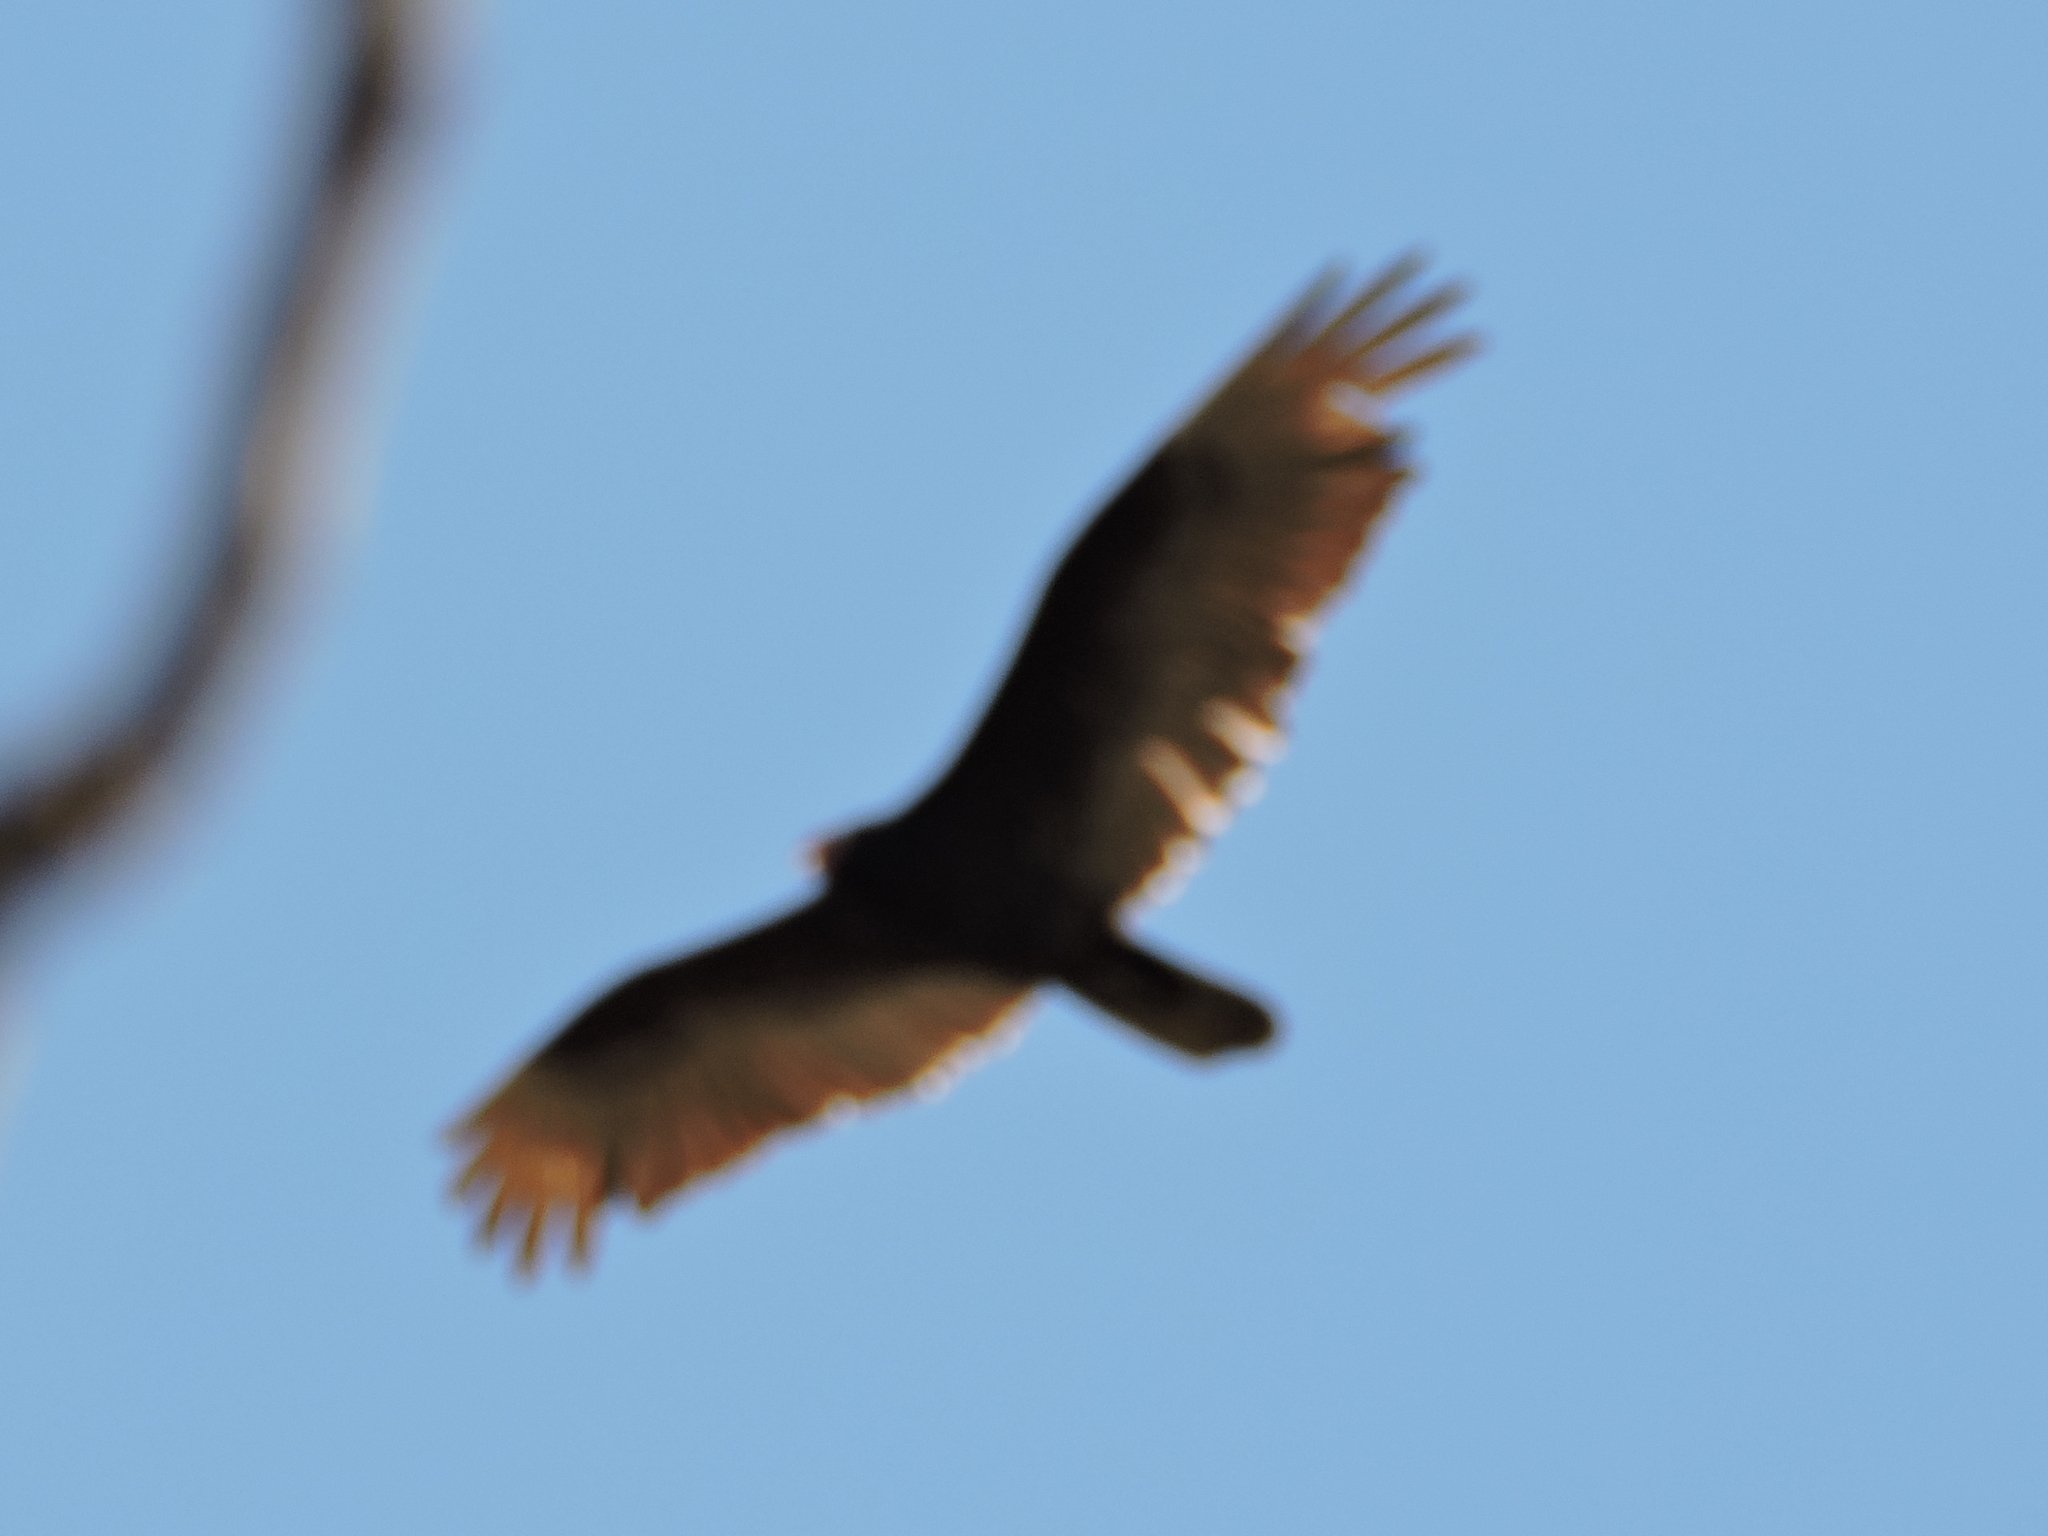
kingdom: Animalia
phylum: Chordata
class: Aves
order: Accipitriformes
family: Cathartidae
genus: Cathartes
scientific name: Cathartes aura
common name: Turkey vulture
